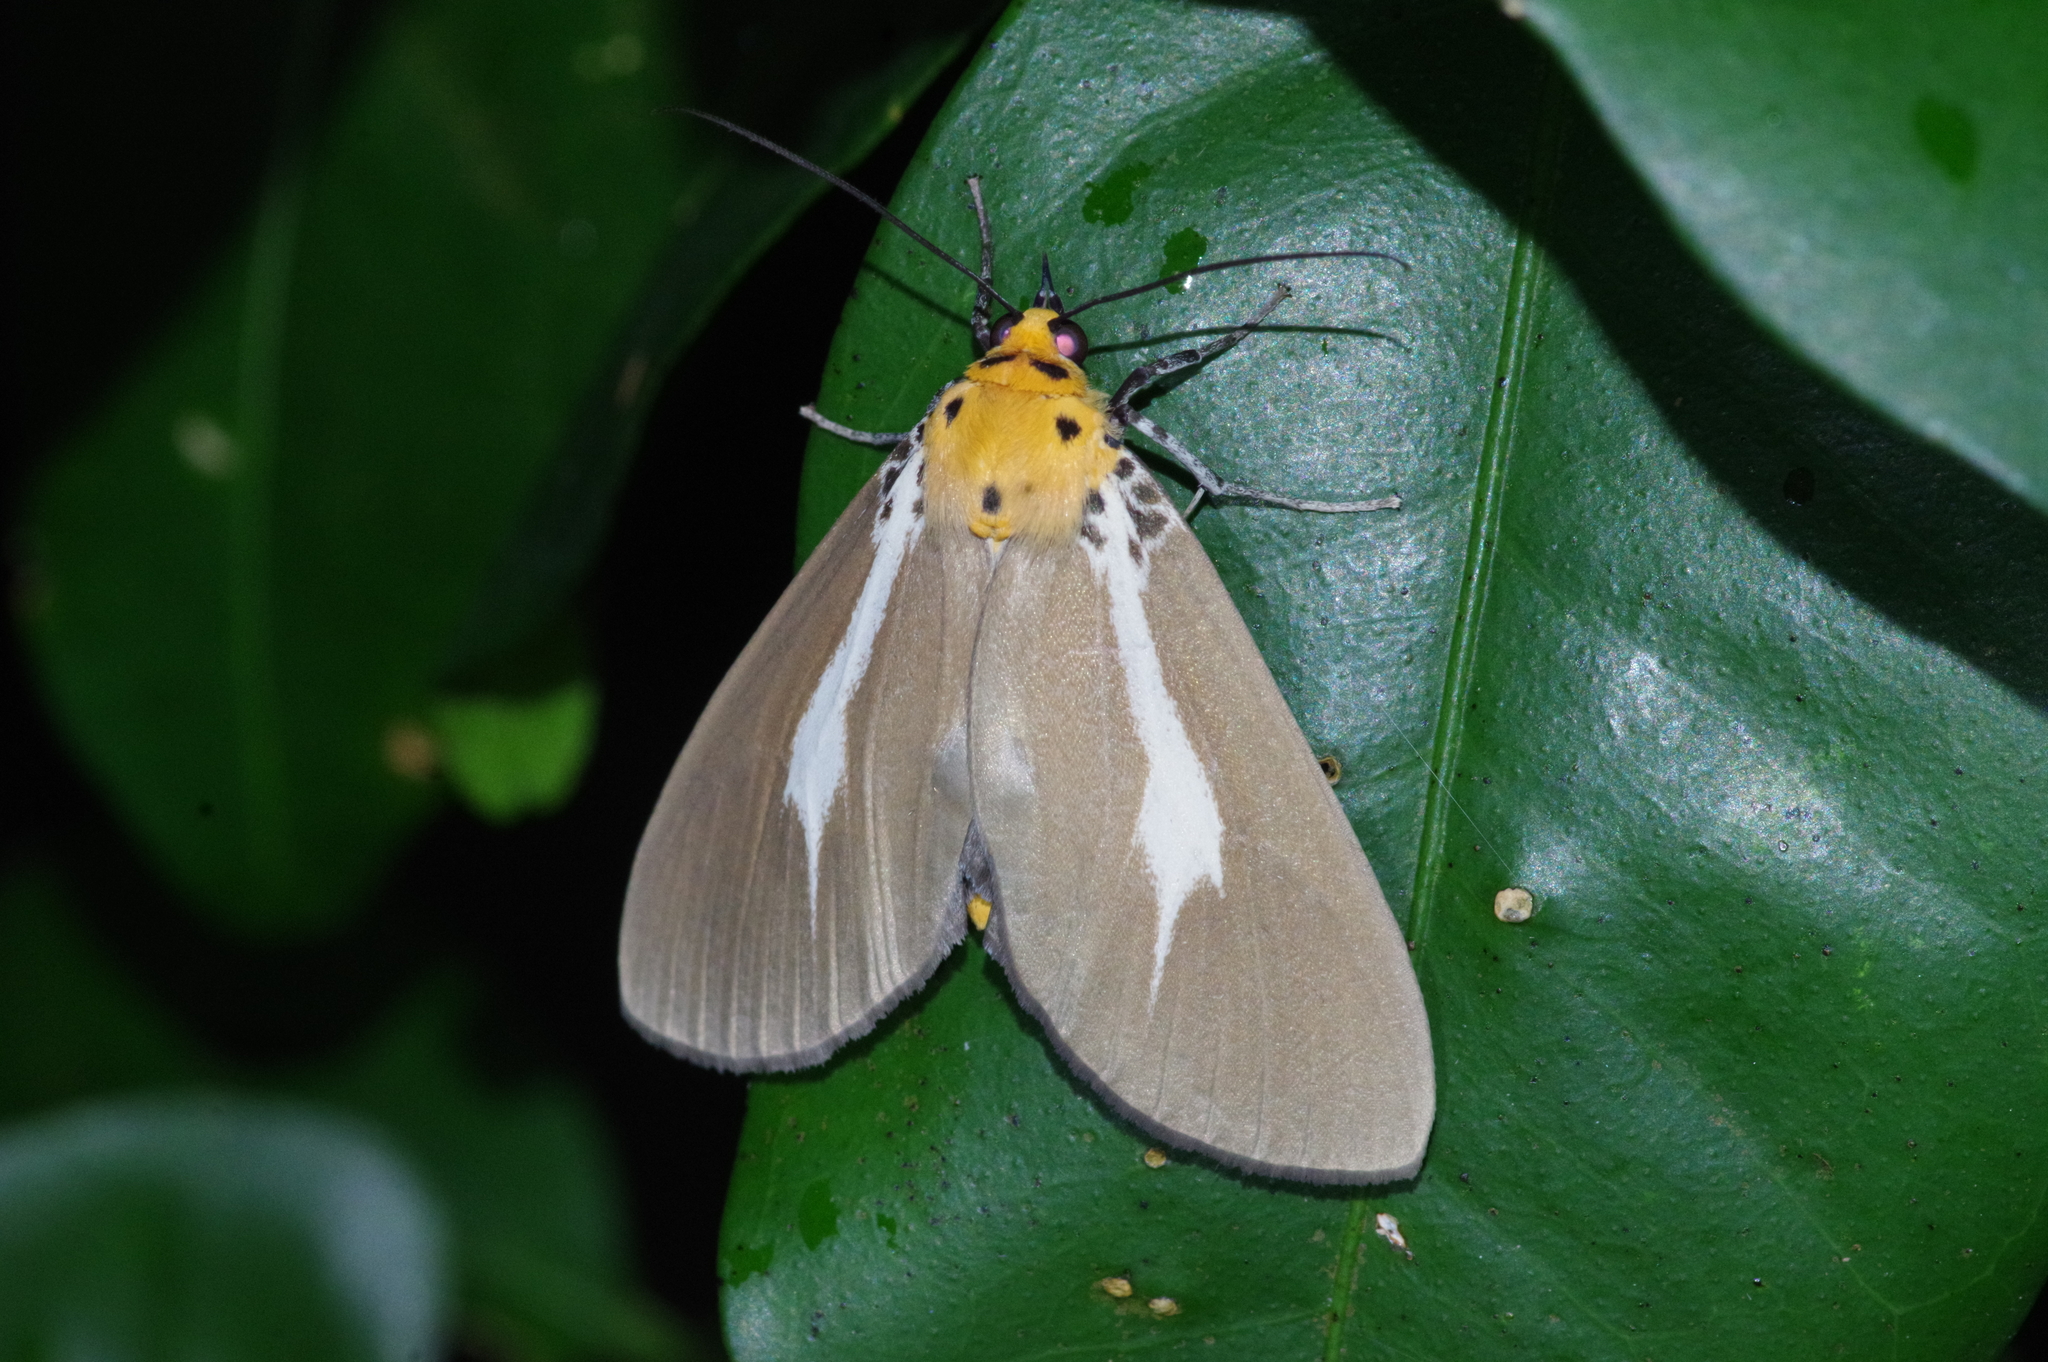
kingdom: Animalia
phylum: Arthropoda
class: Insecta
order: Lepidoptera
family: Erebidae
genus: Asota
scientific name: Asota heliconia
